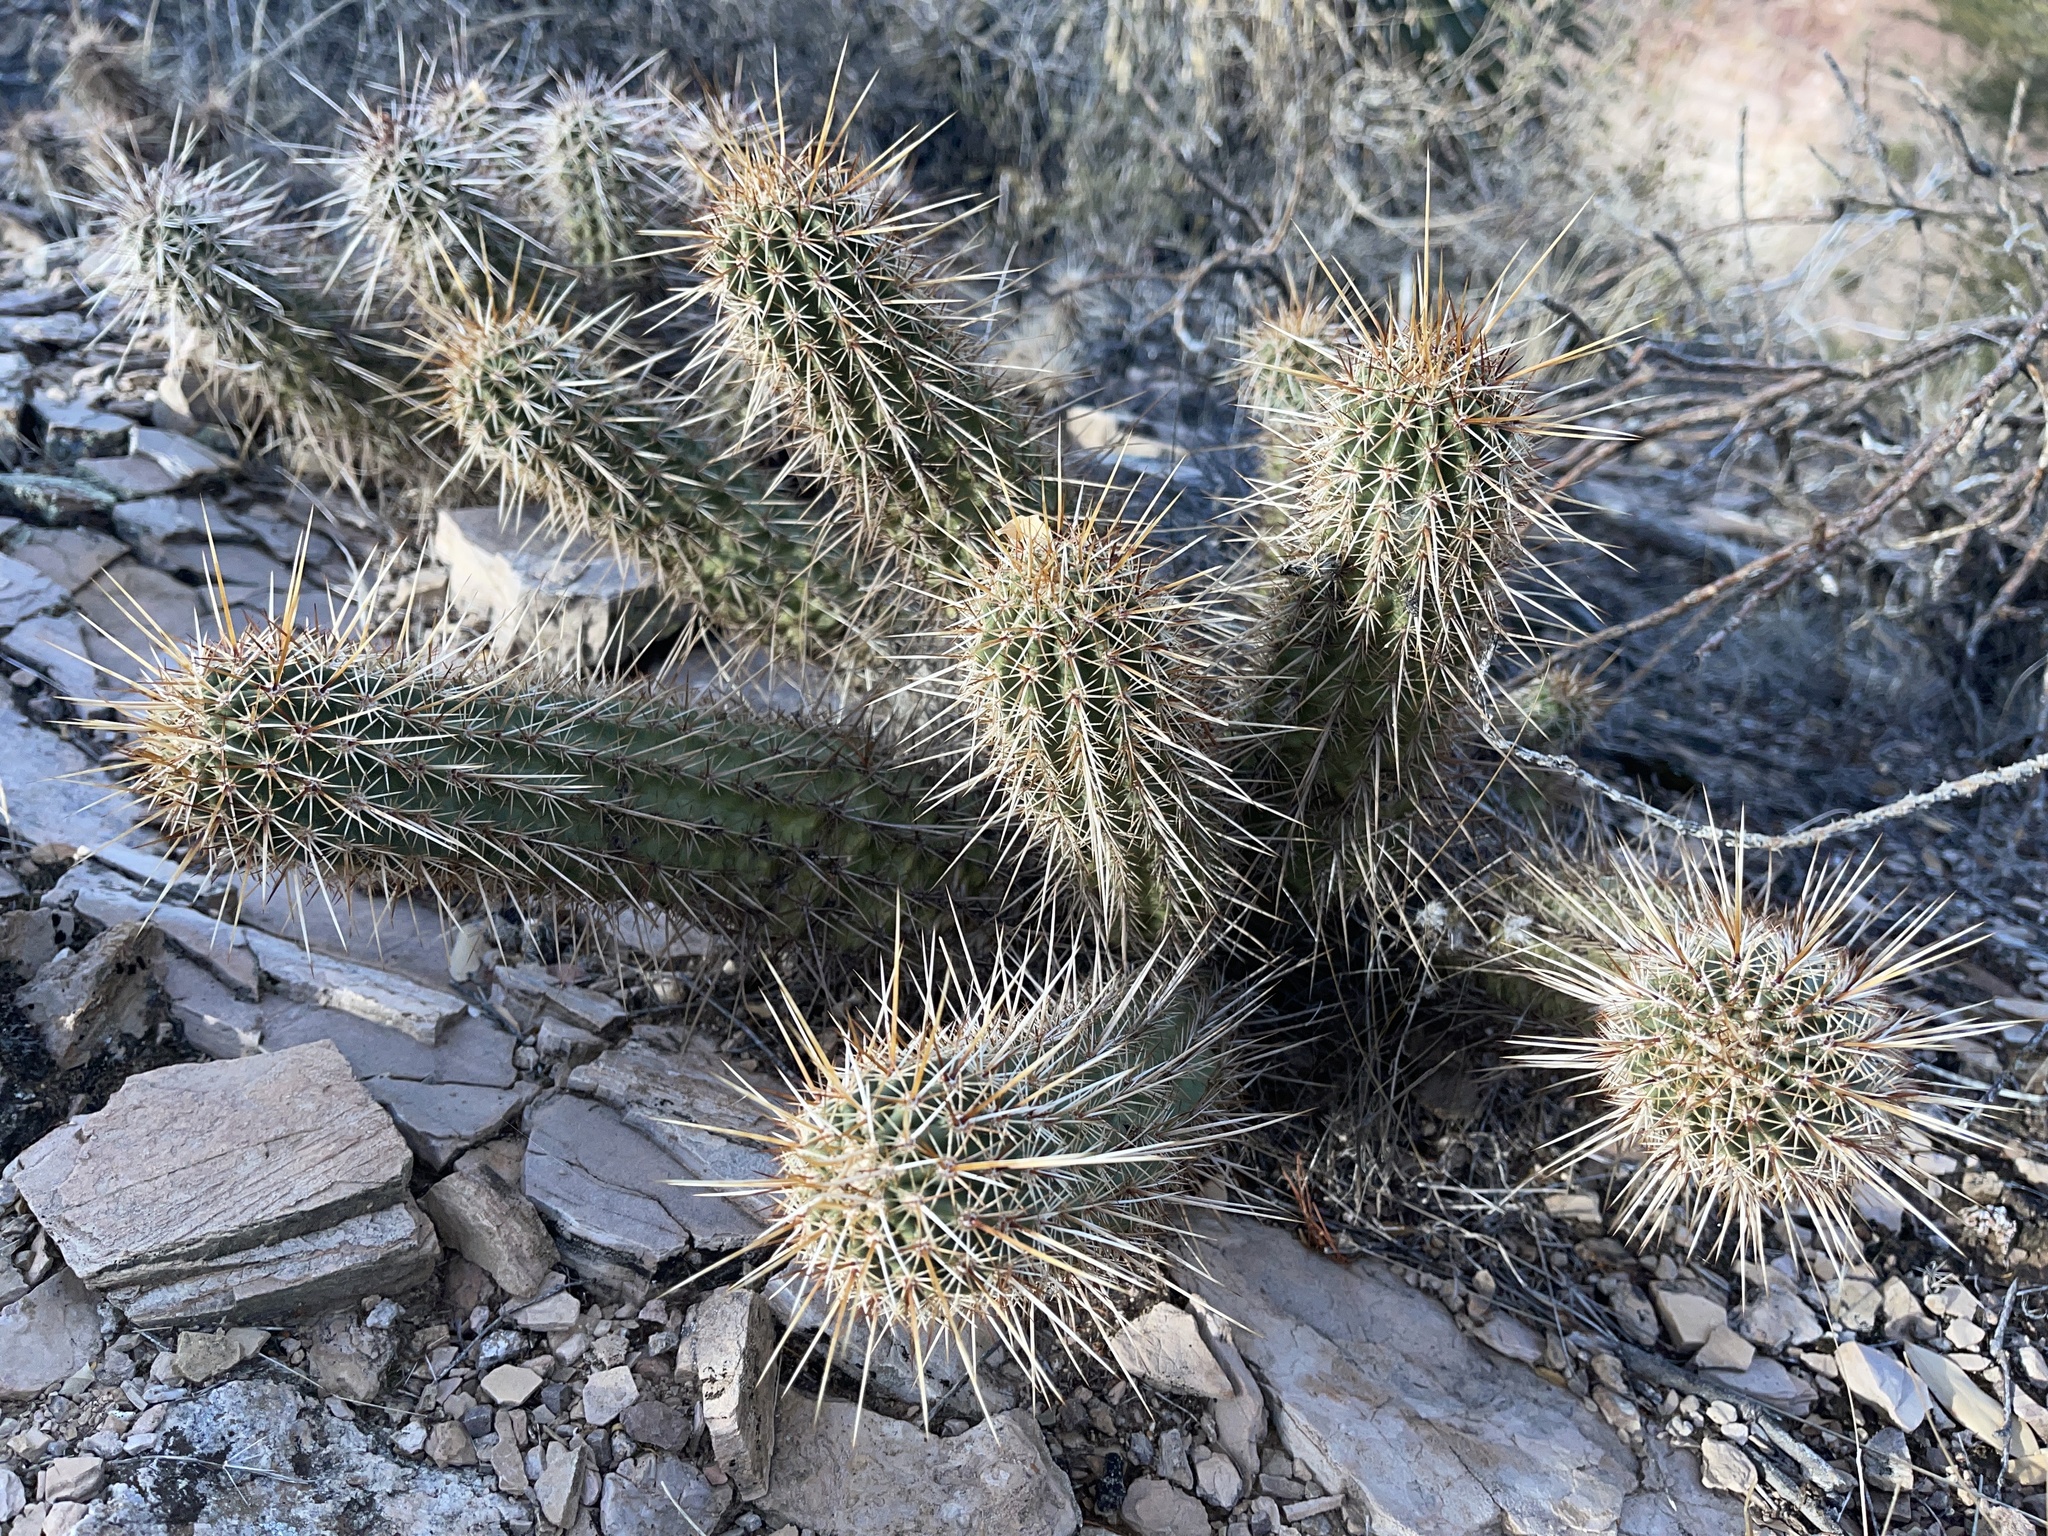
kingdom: Plantae
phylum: Tracheophyta
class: Magnoliopsida
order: Caryophyllales
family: Cactaceae
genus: Echinocereus
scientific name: Echinocereus fasciculatus
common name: Bundle hedgehog
